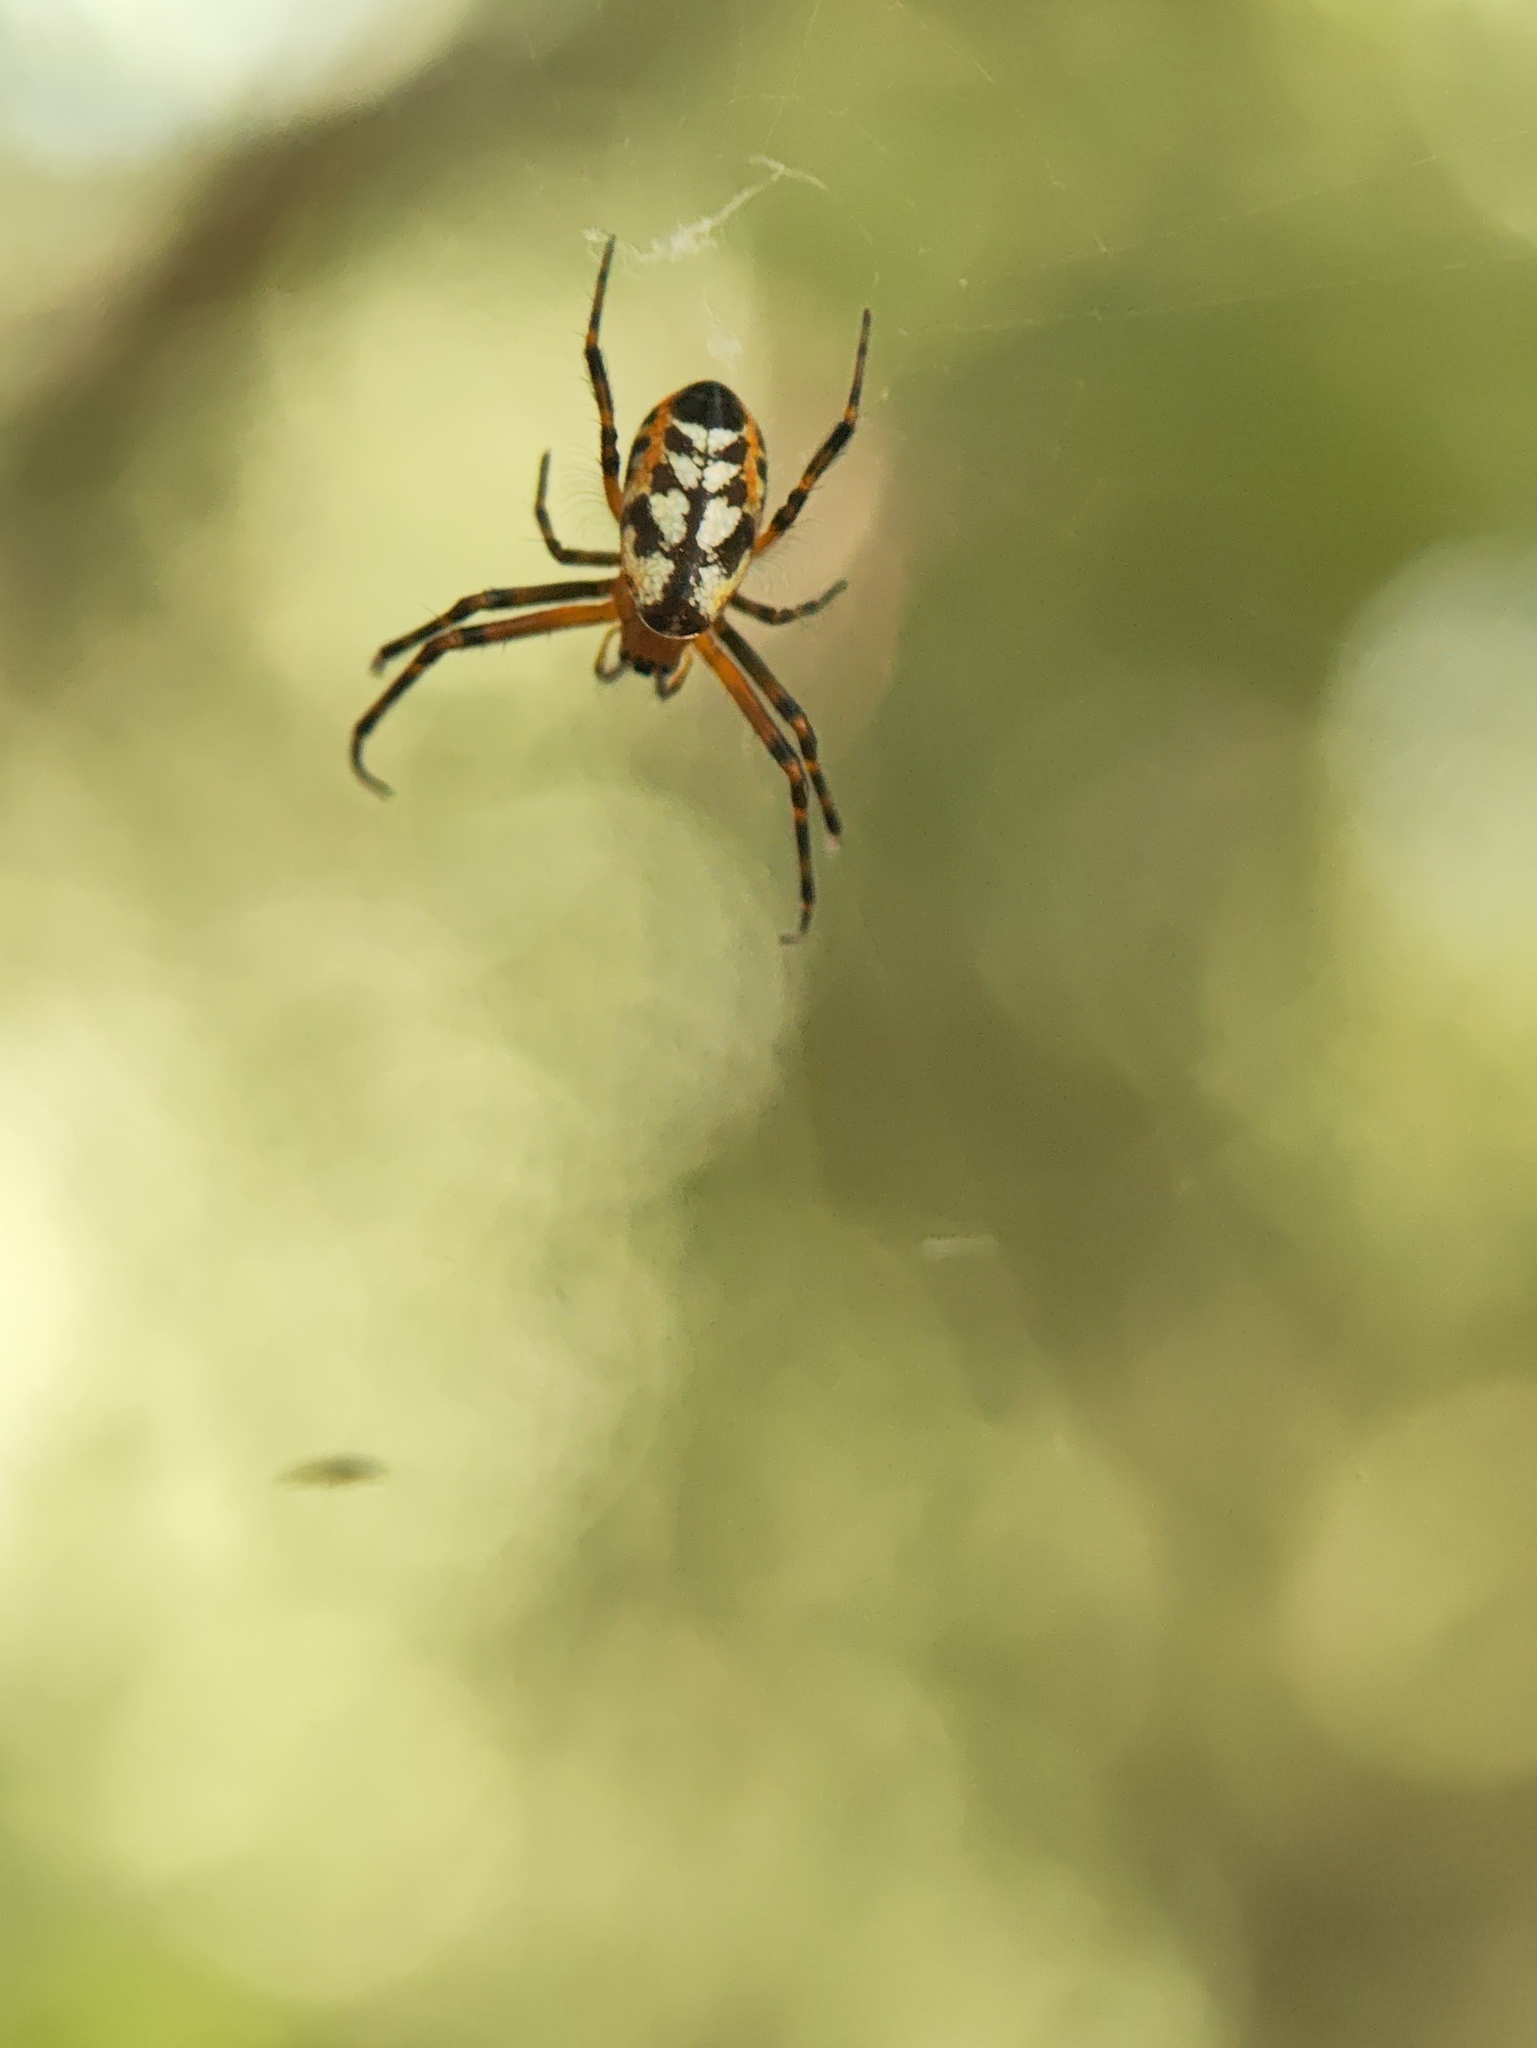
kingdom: Animalia
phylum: Arthropoda
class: Arachnida
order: Araneae
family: Tetragnathidae
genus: Leucauge
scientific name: Leucauge fastigata
